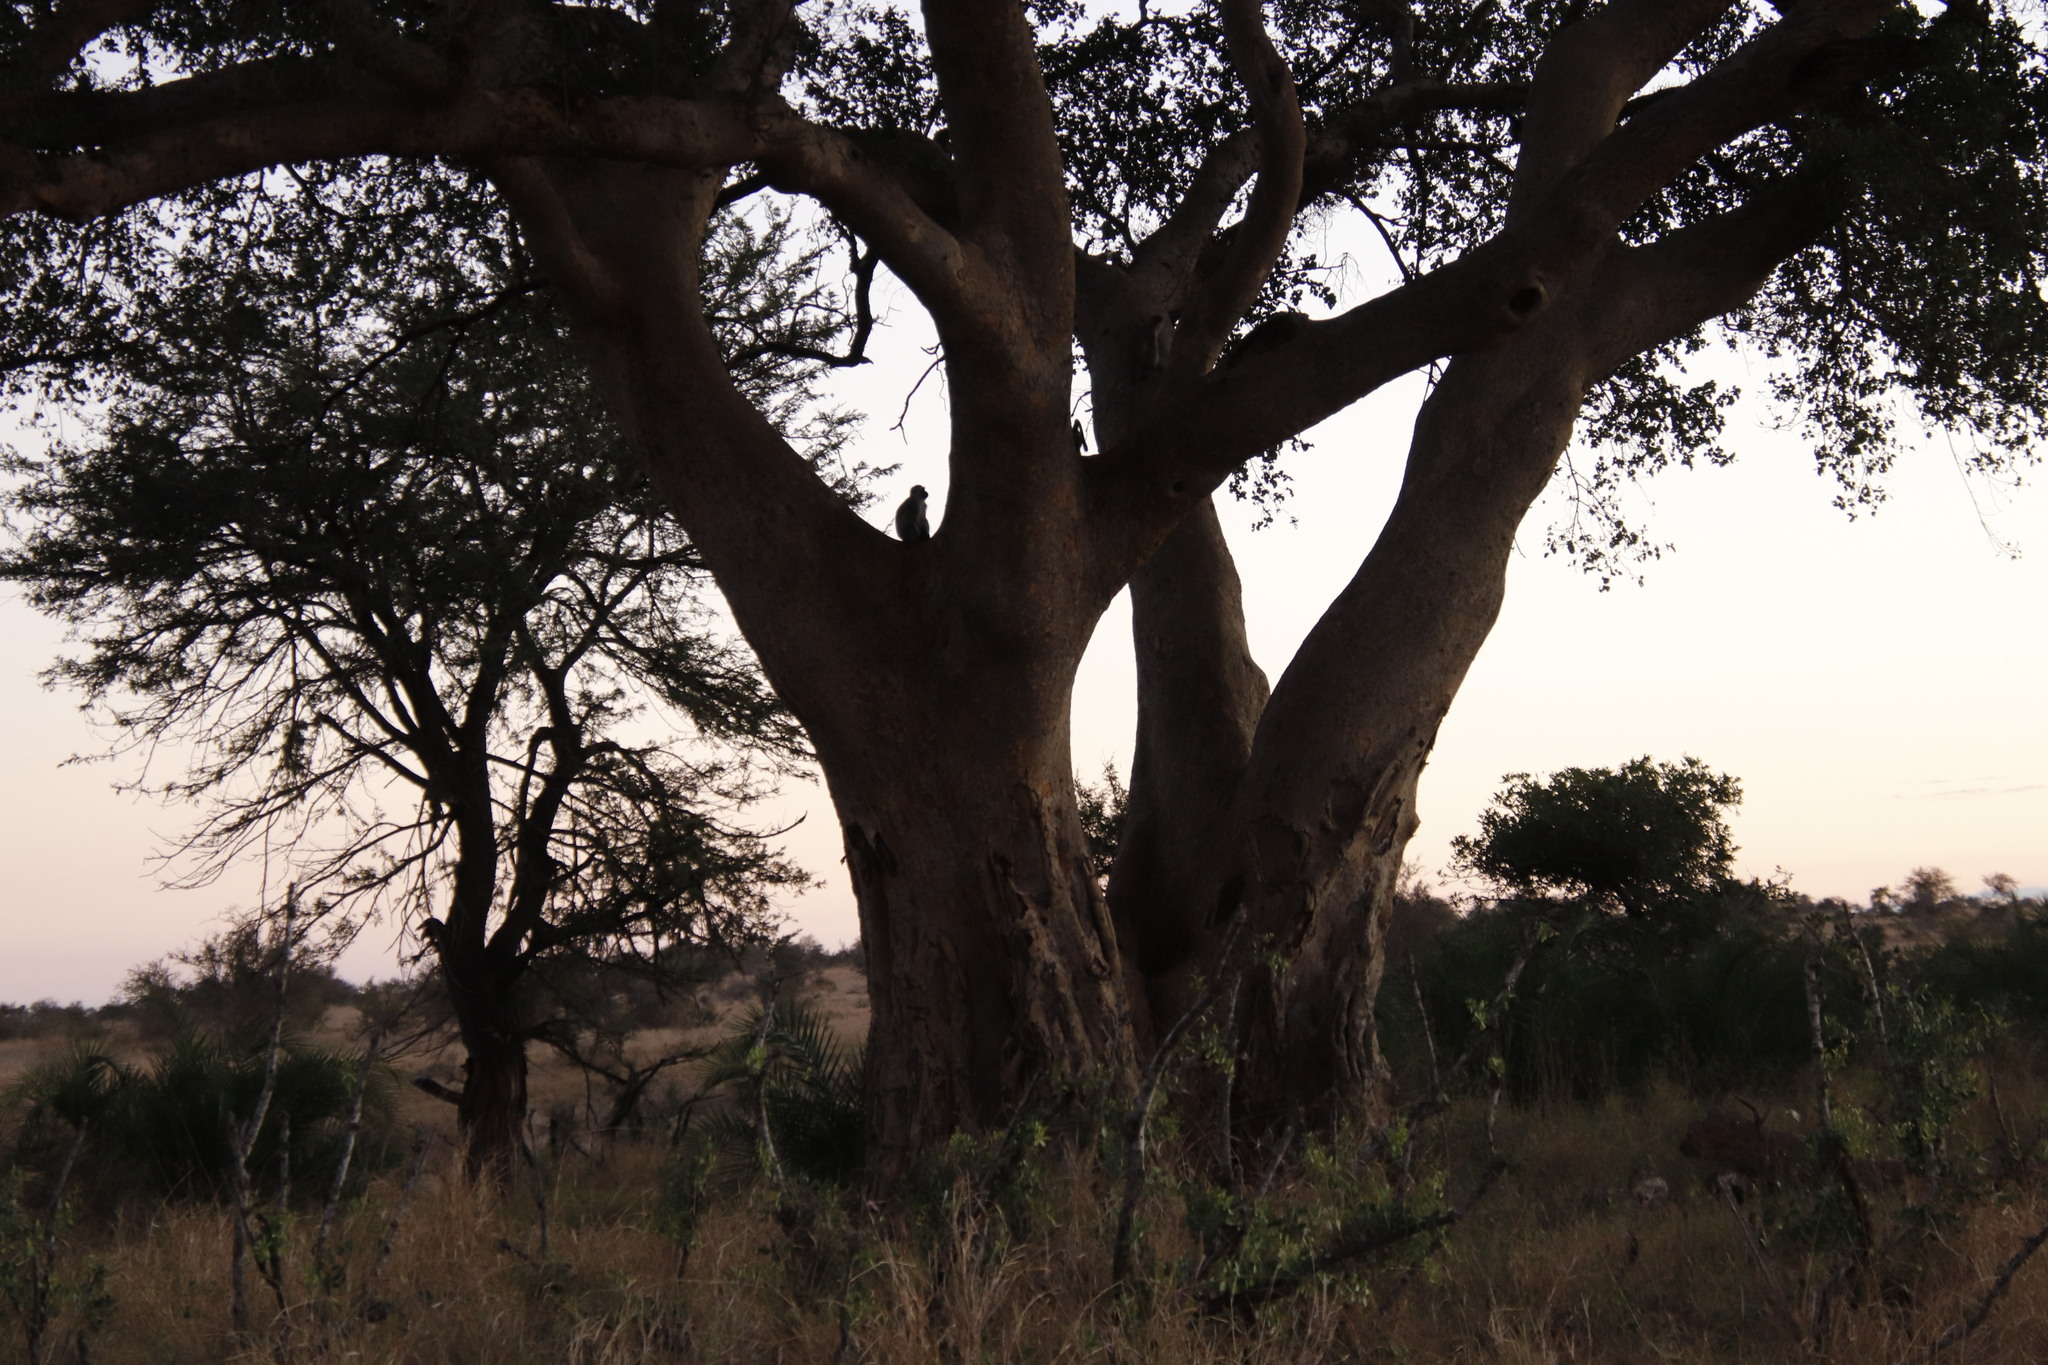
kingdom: Animalia
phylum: Chordata
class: Mammalia
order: Primates
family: Cercopithecidae
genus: Chlorocebus
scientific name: Chlorocebus pygerythrus
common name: Vervet monkey
